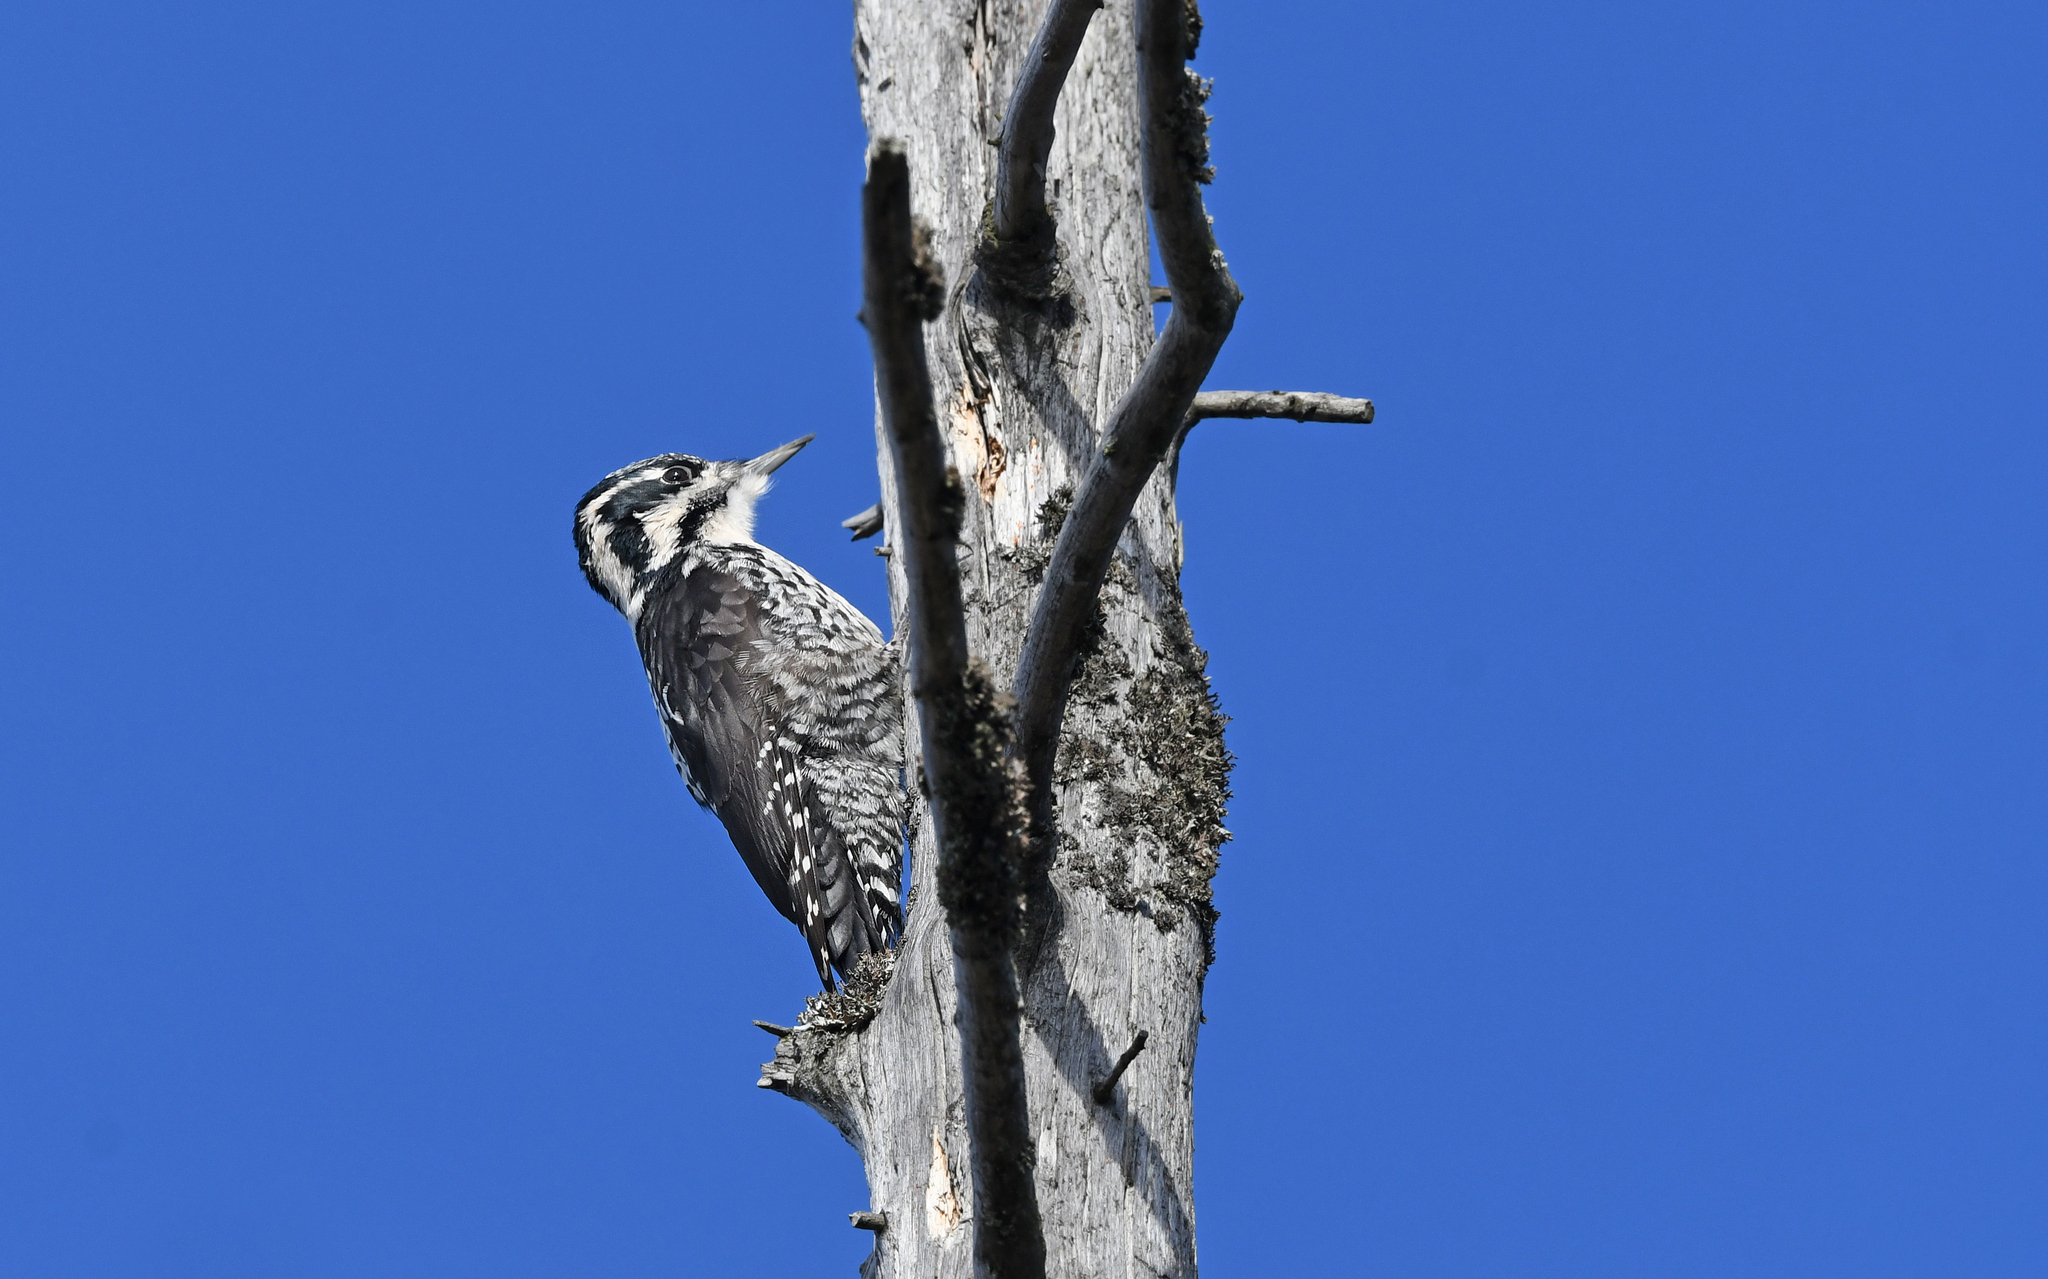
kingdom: Animalia
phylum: Chordata
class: Aves
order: Piciformes
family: Picidae
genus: Picoides
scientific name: Picoides tridactylus
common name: Eurasian three-toed woodpecker
